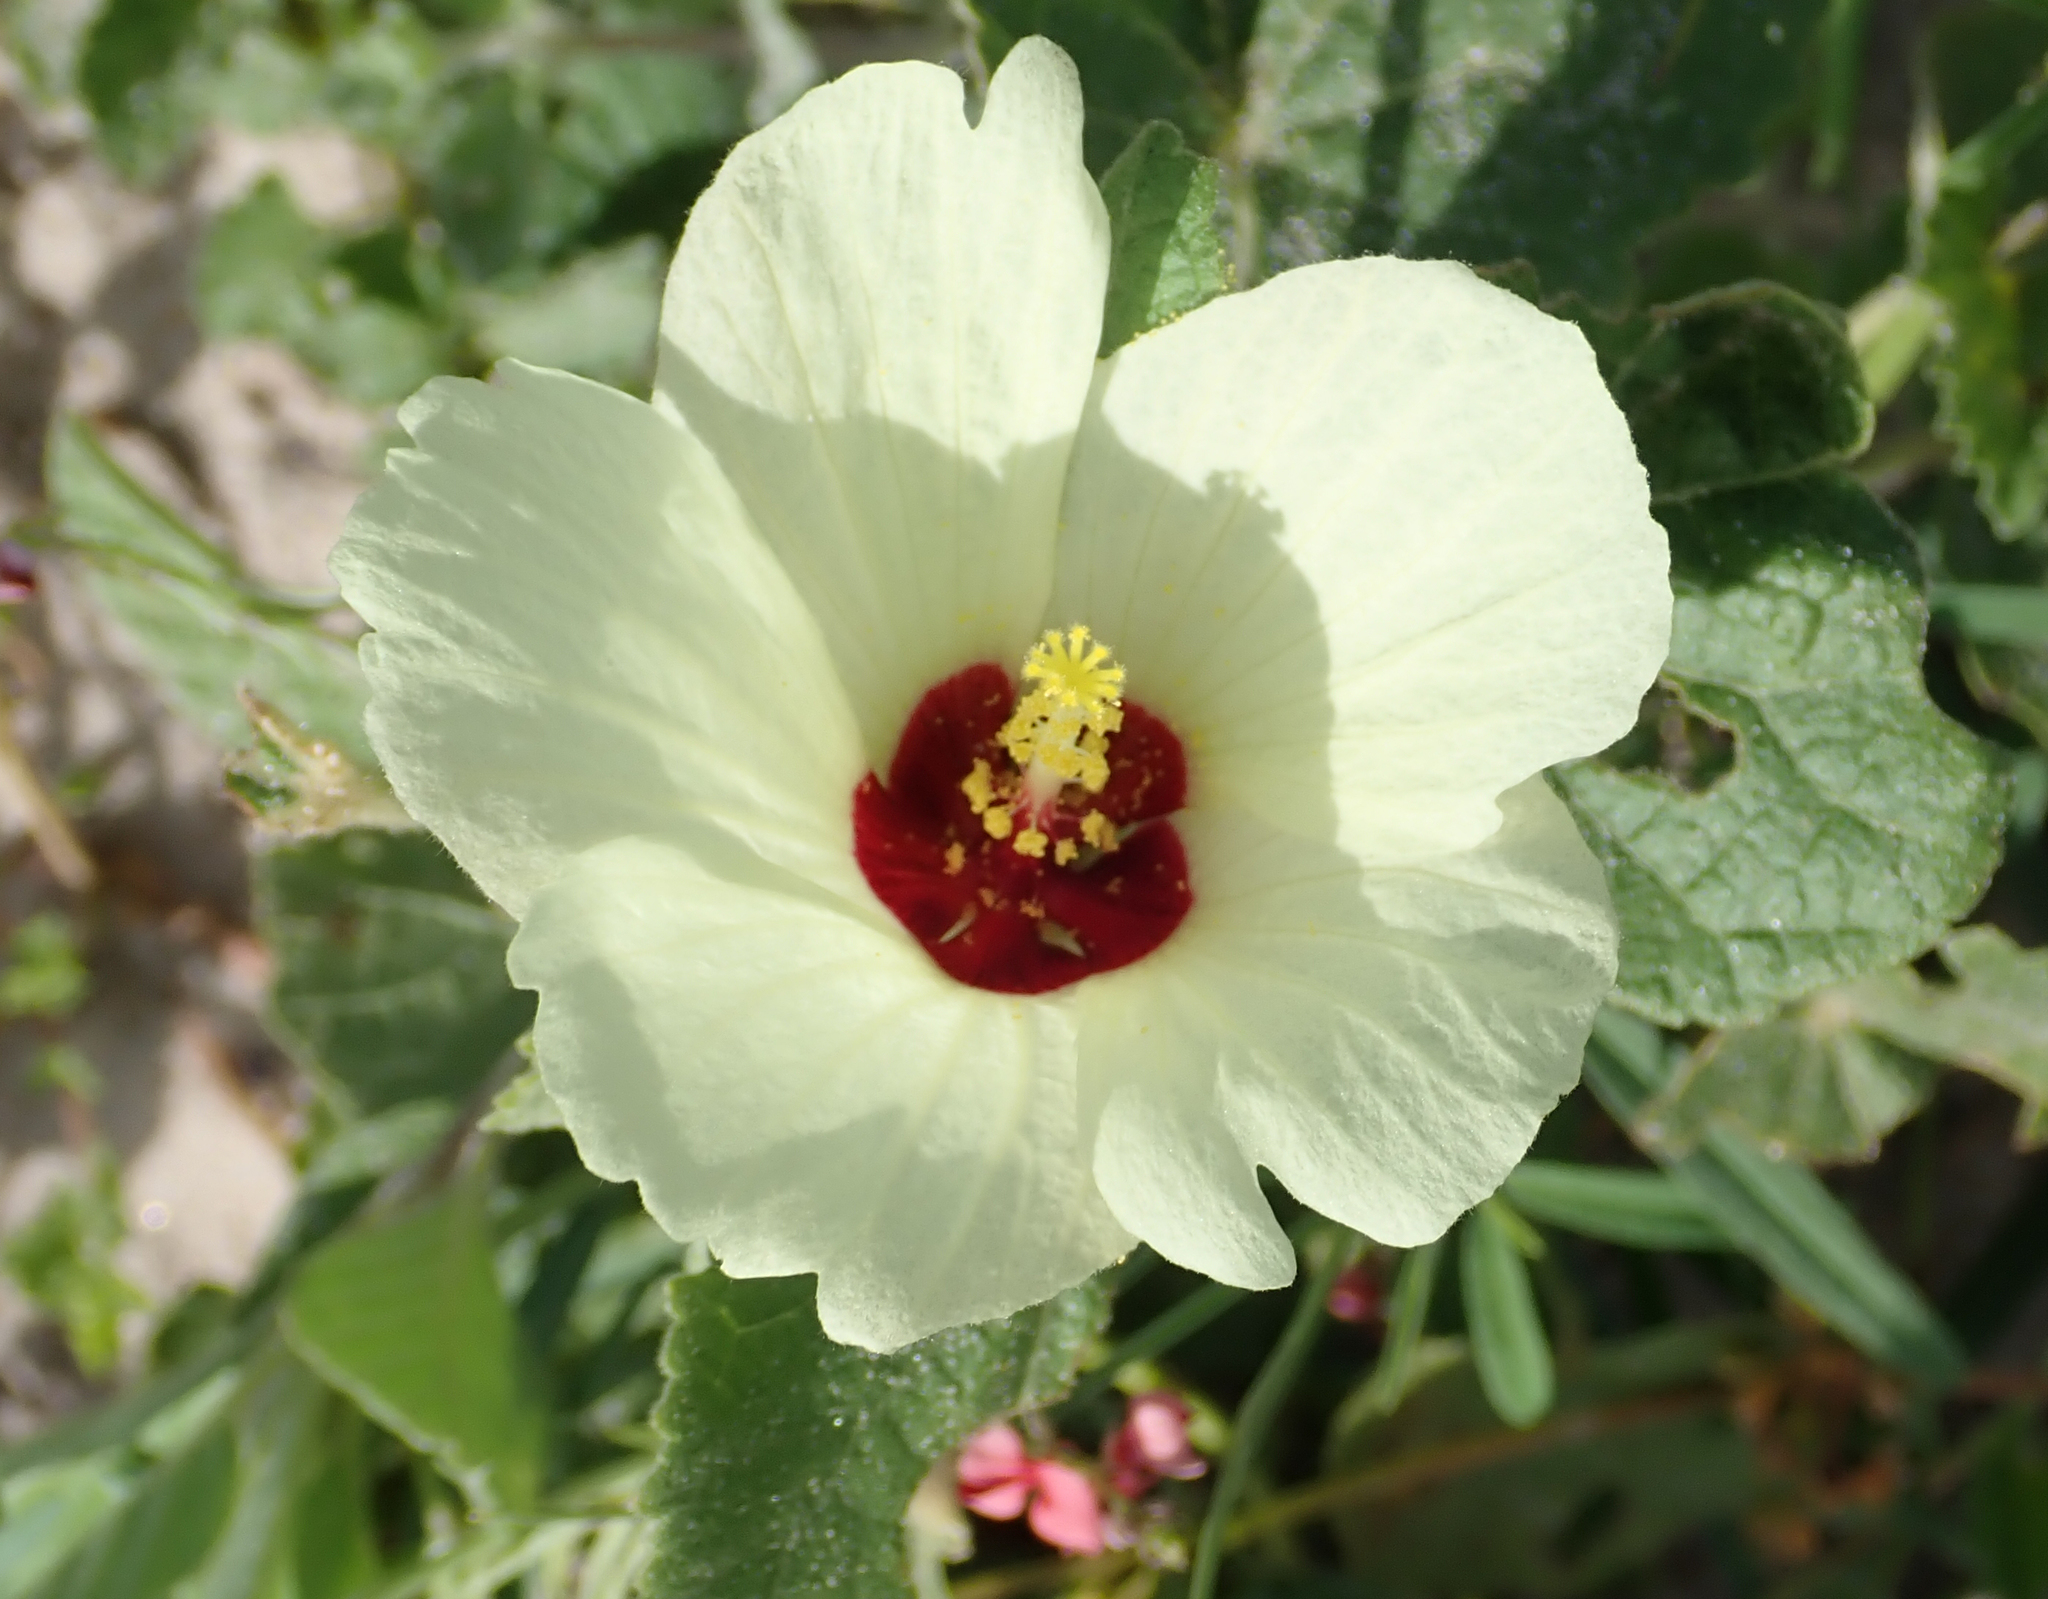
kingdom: Plantae
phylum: Tracheophyta
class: Magnoliopsida
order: Malvales
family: Malvaceae
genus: Pavonia
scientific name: Pavonia senegalensis
